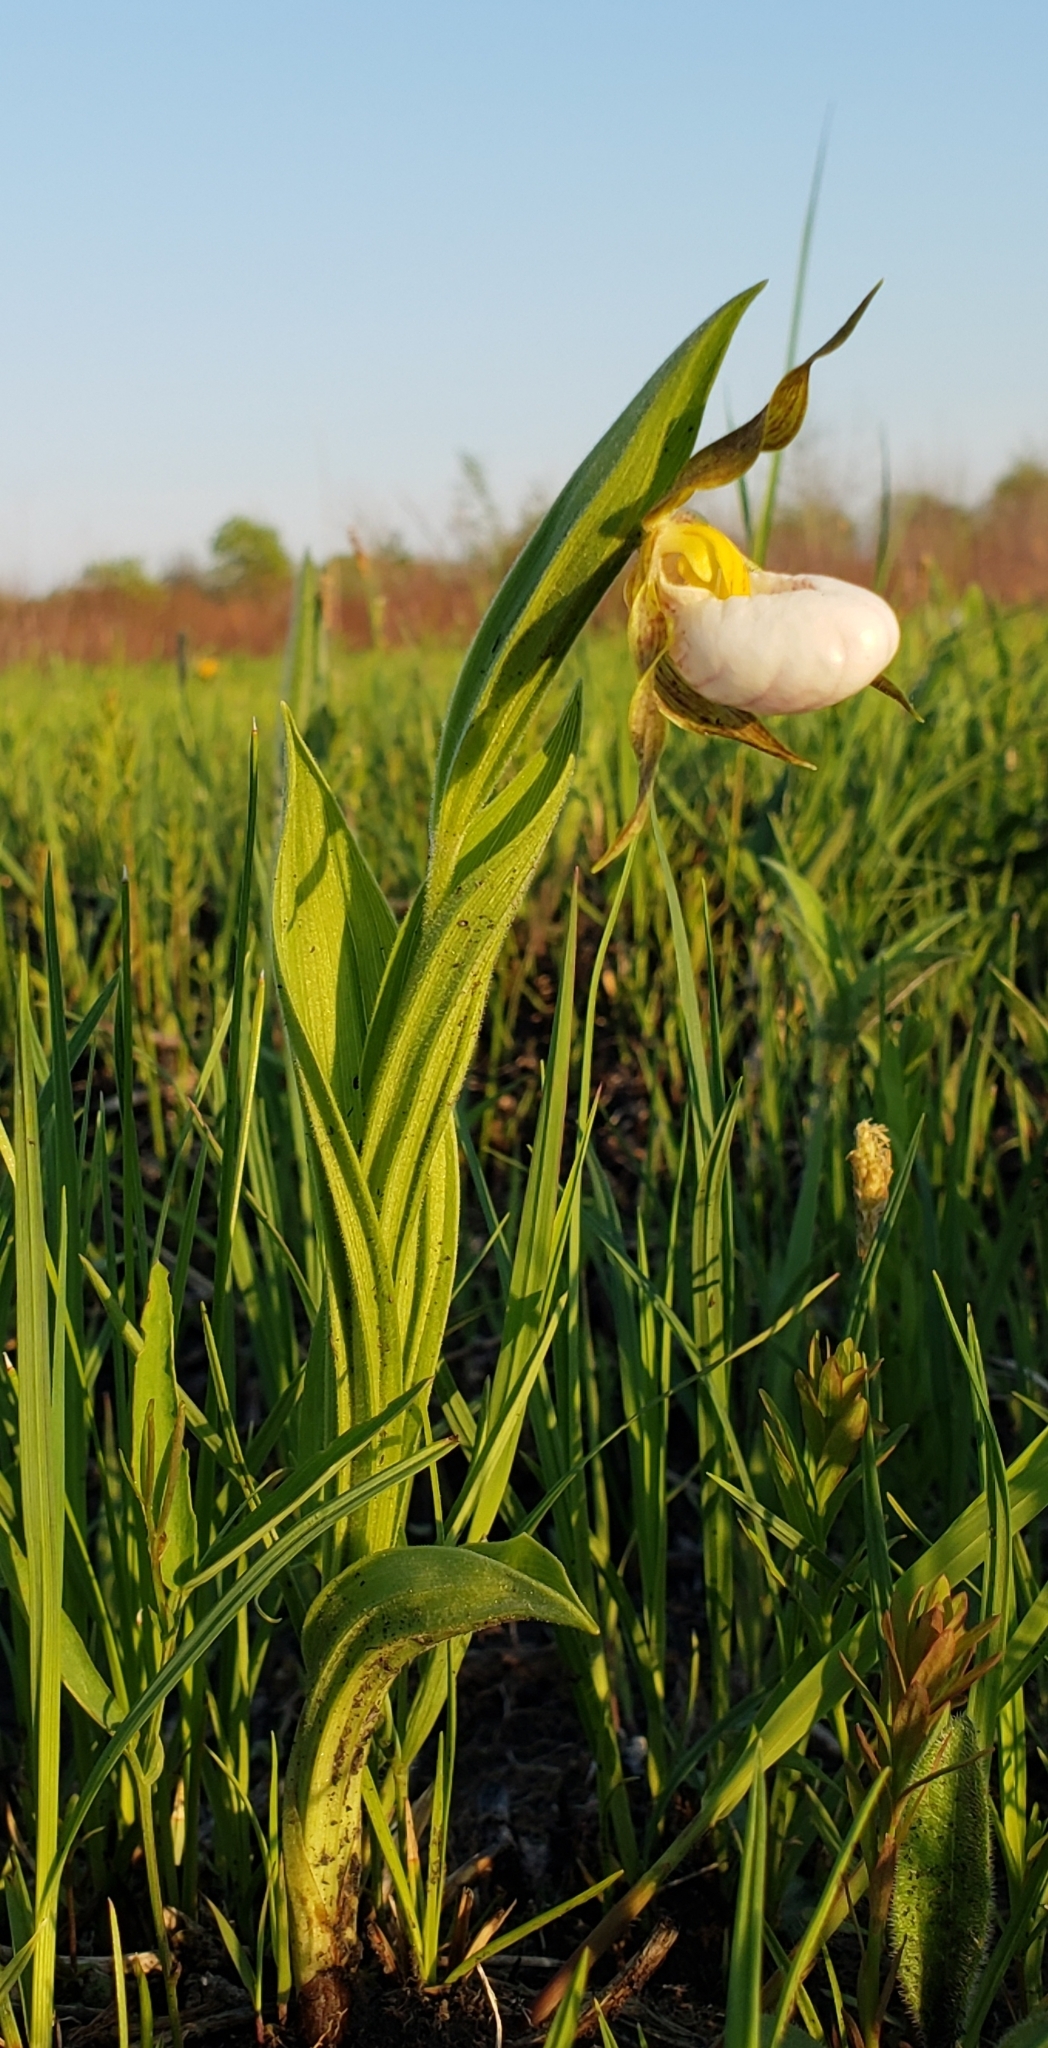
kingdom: Plantae
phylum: Tracheophyta
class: Liliopsida
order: Asparagales
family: Orchidaceae
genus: Cypripedium
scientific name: Cypripedium candidum
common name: White lady's-slipper
